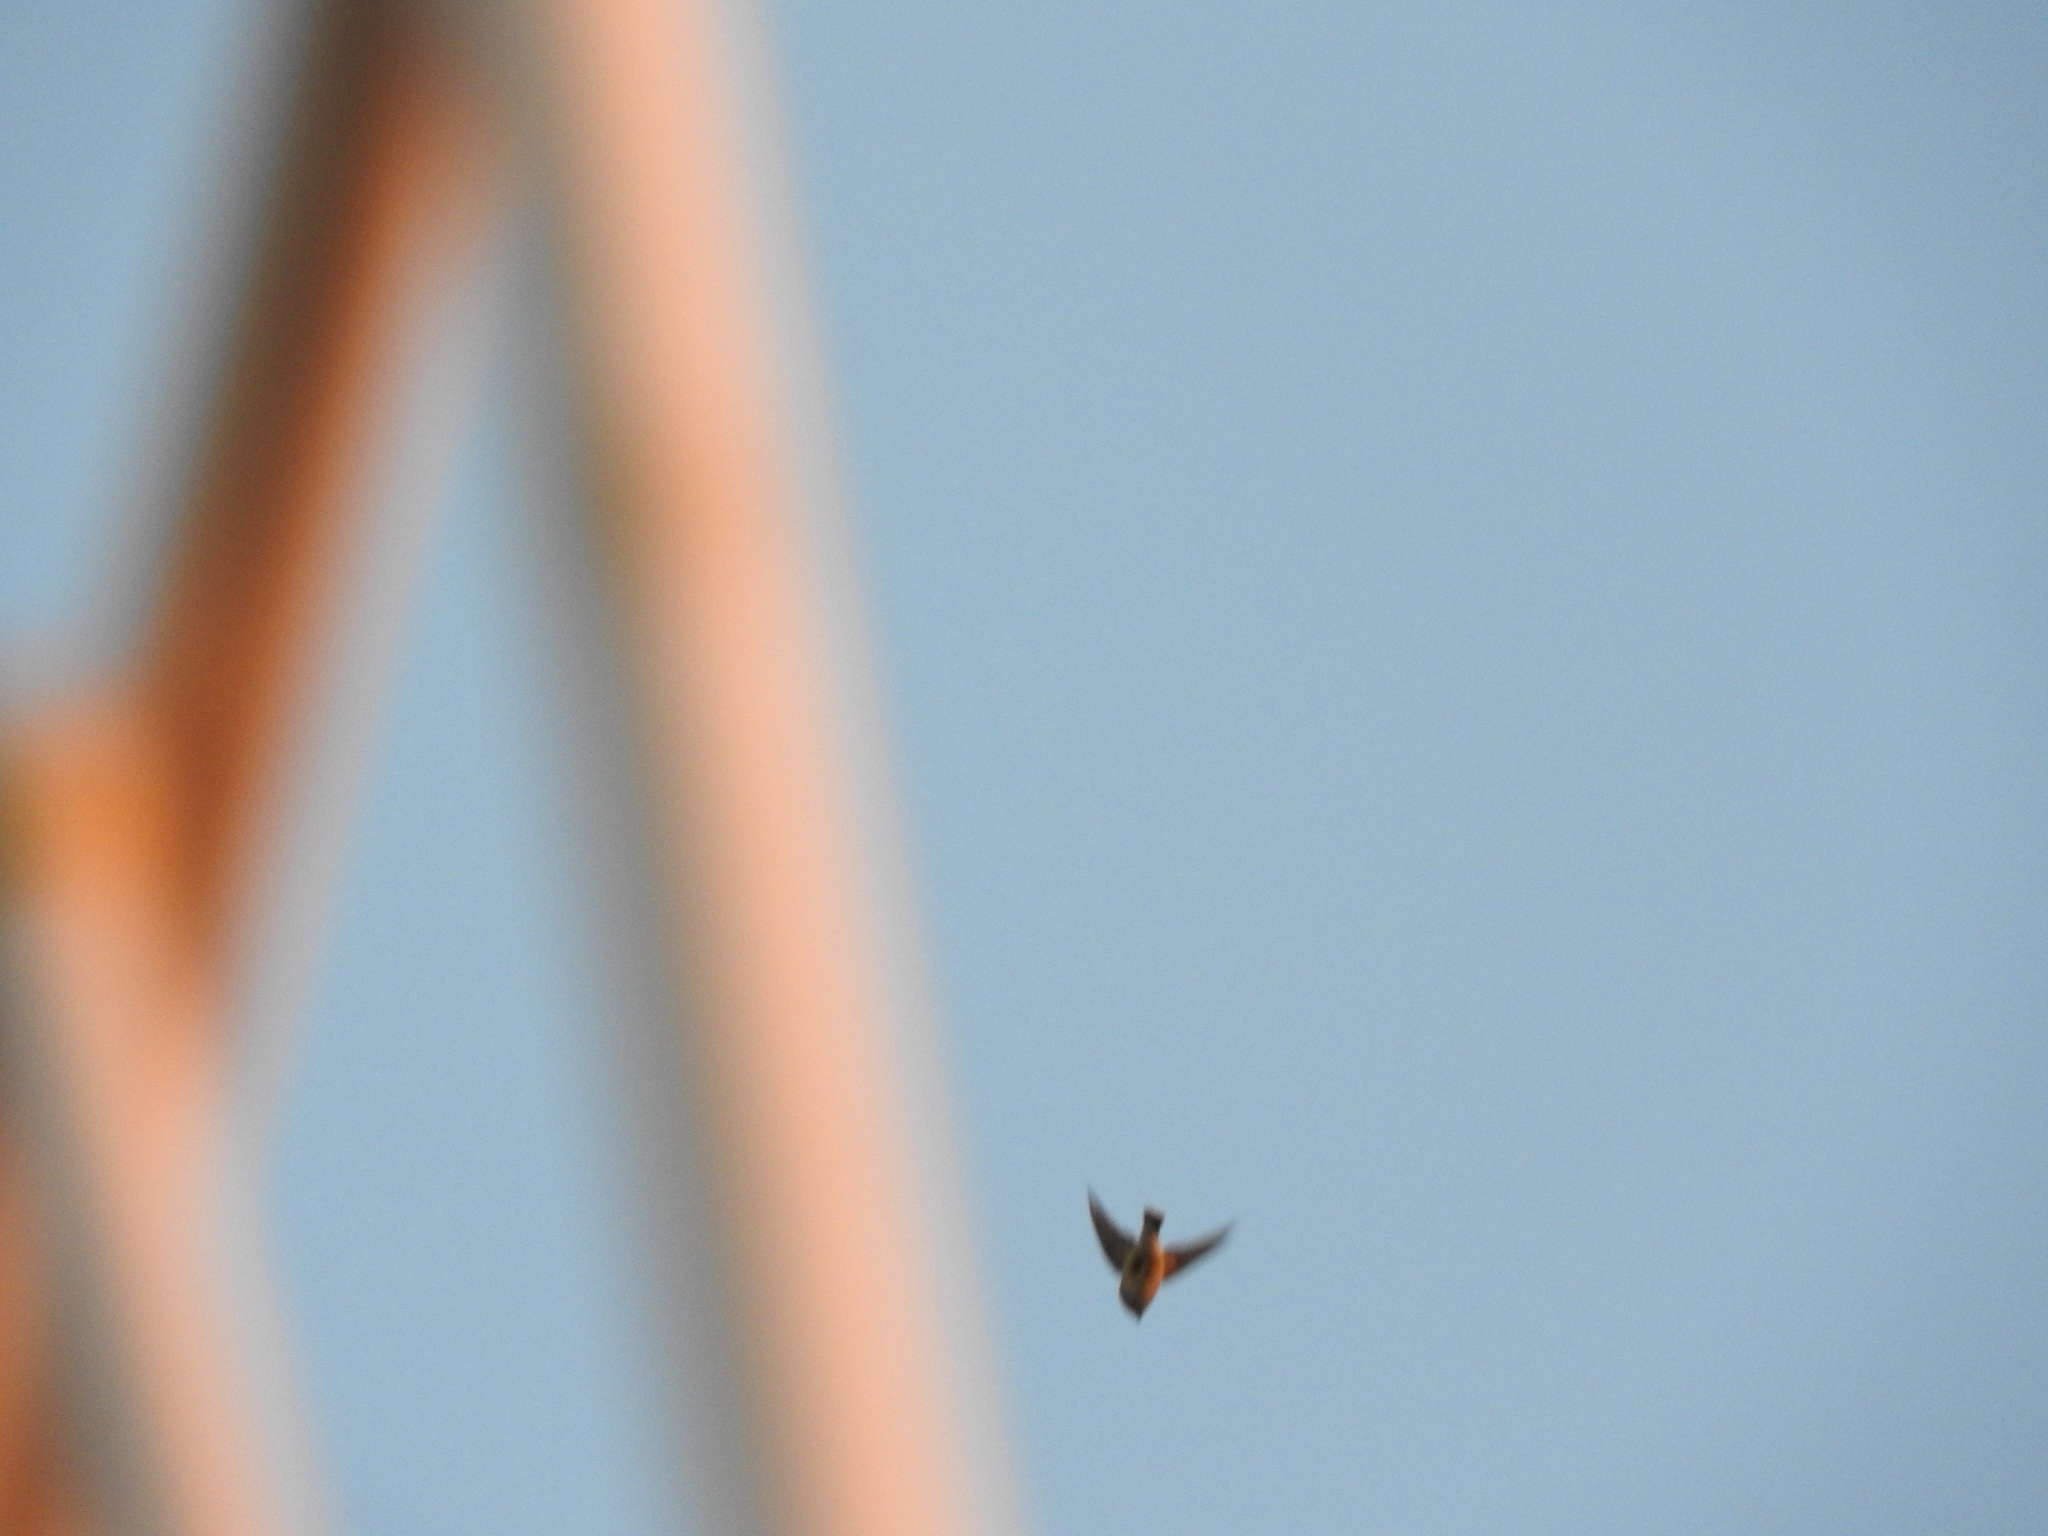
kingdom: Animalia
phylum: Chordata
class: Aves
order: Passeriformes
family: Hirundinidae
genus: Hirundo
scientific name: Hirundo rustica
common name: Barn swallow
